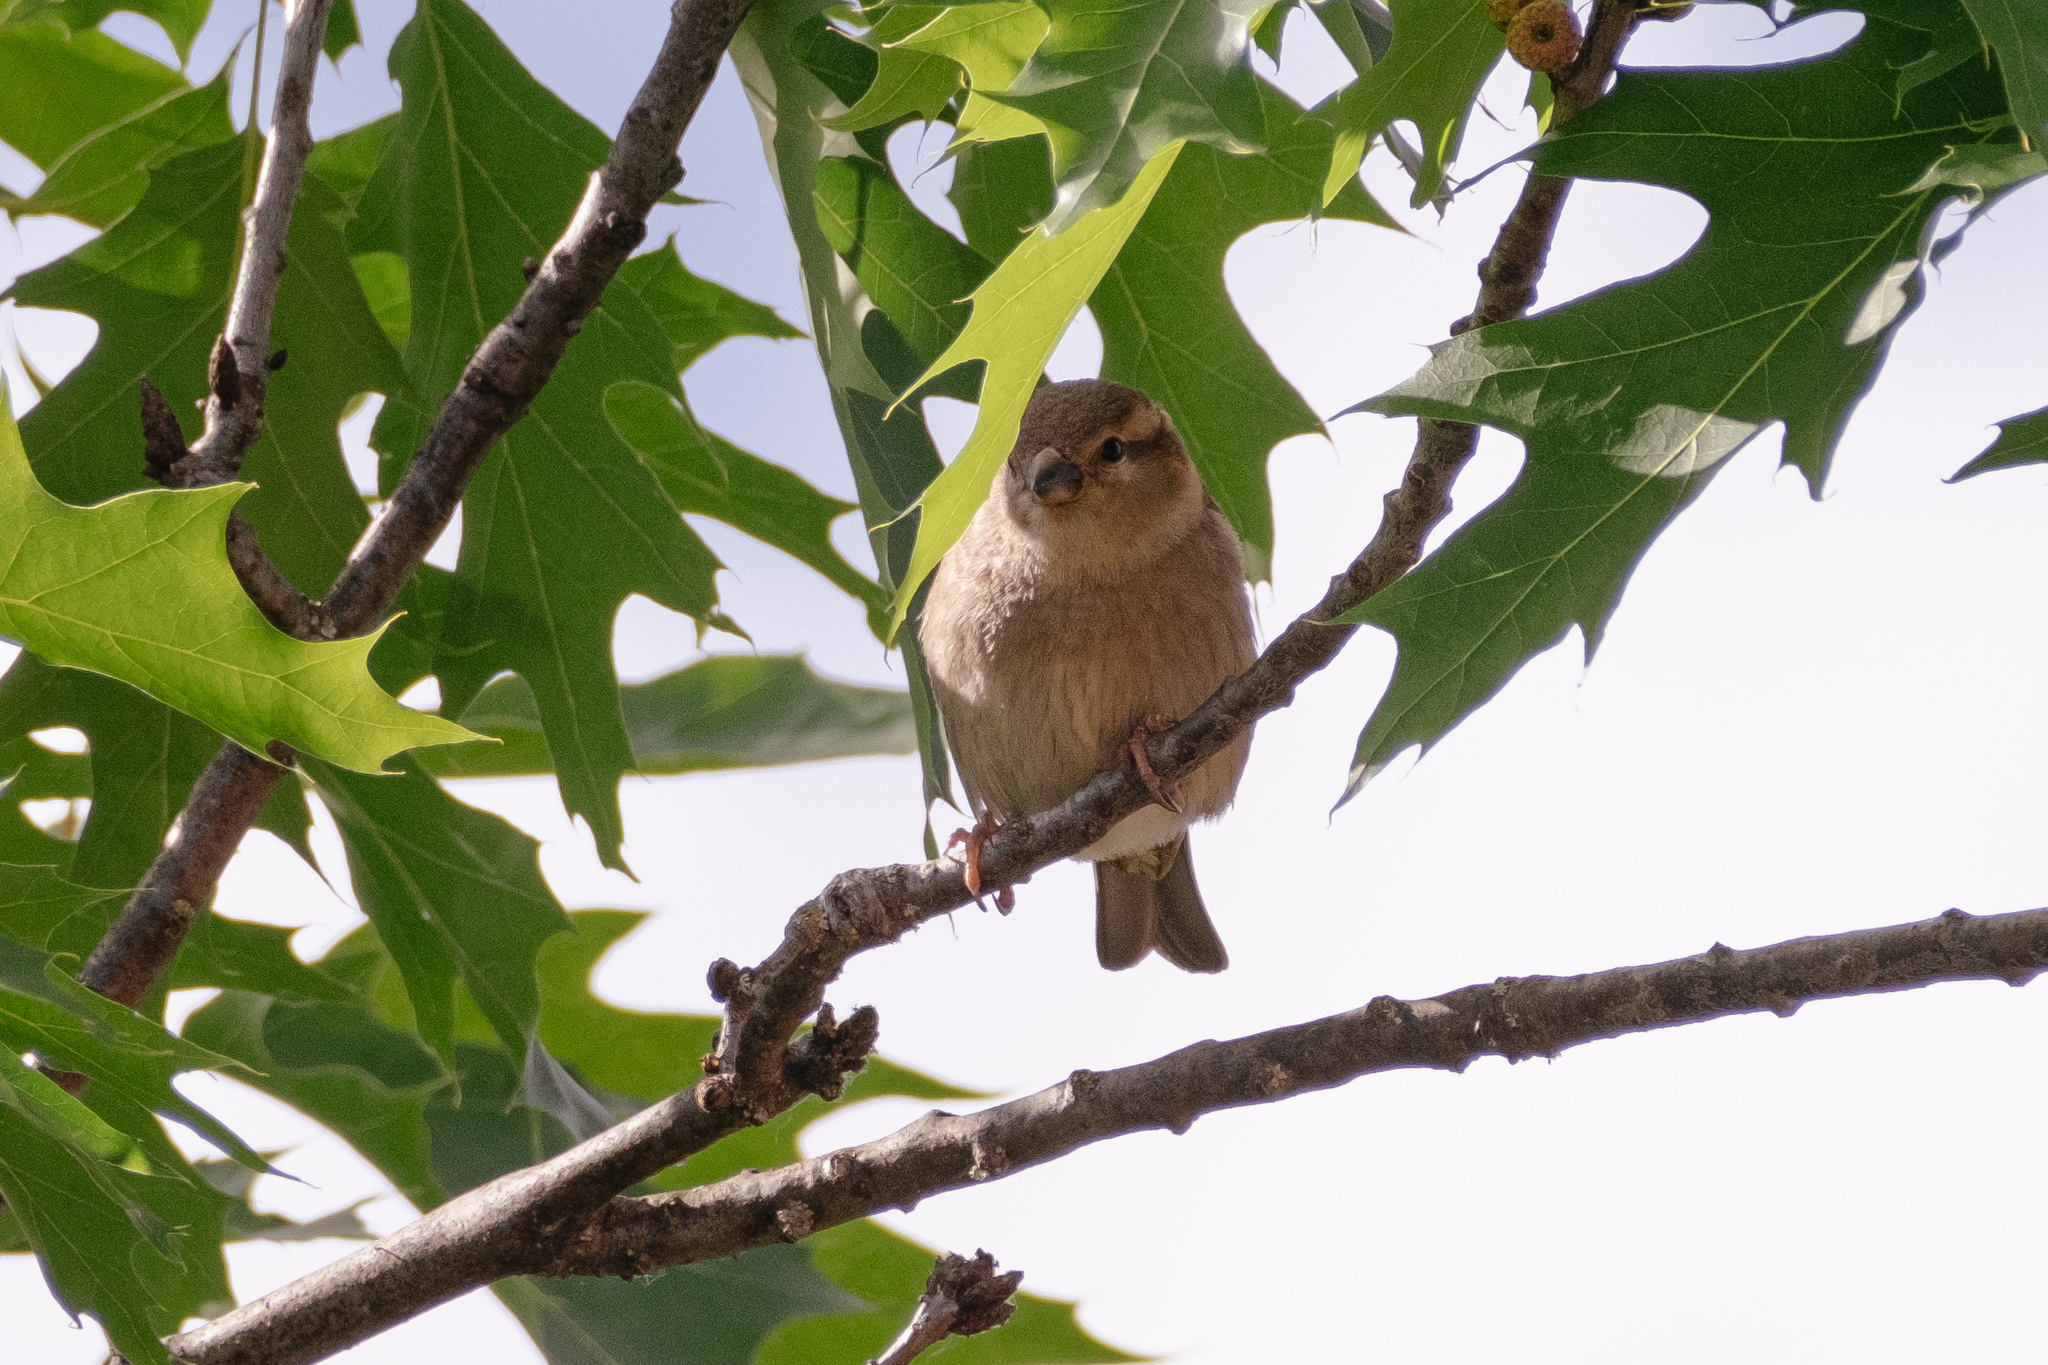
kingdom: Animalia
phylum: Chordata
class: Aves
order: Passeriformes
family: Passeridae
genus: Passer
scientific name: Passer domesticus
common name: House sparrow
